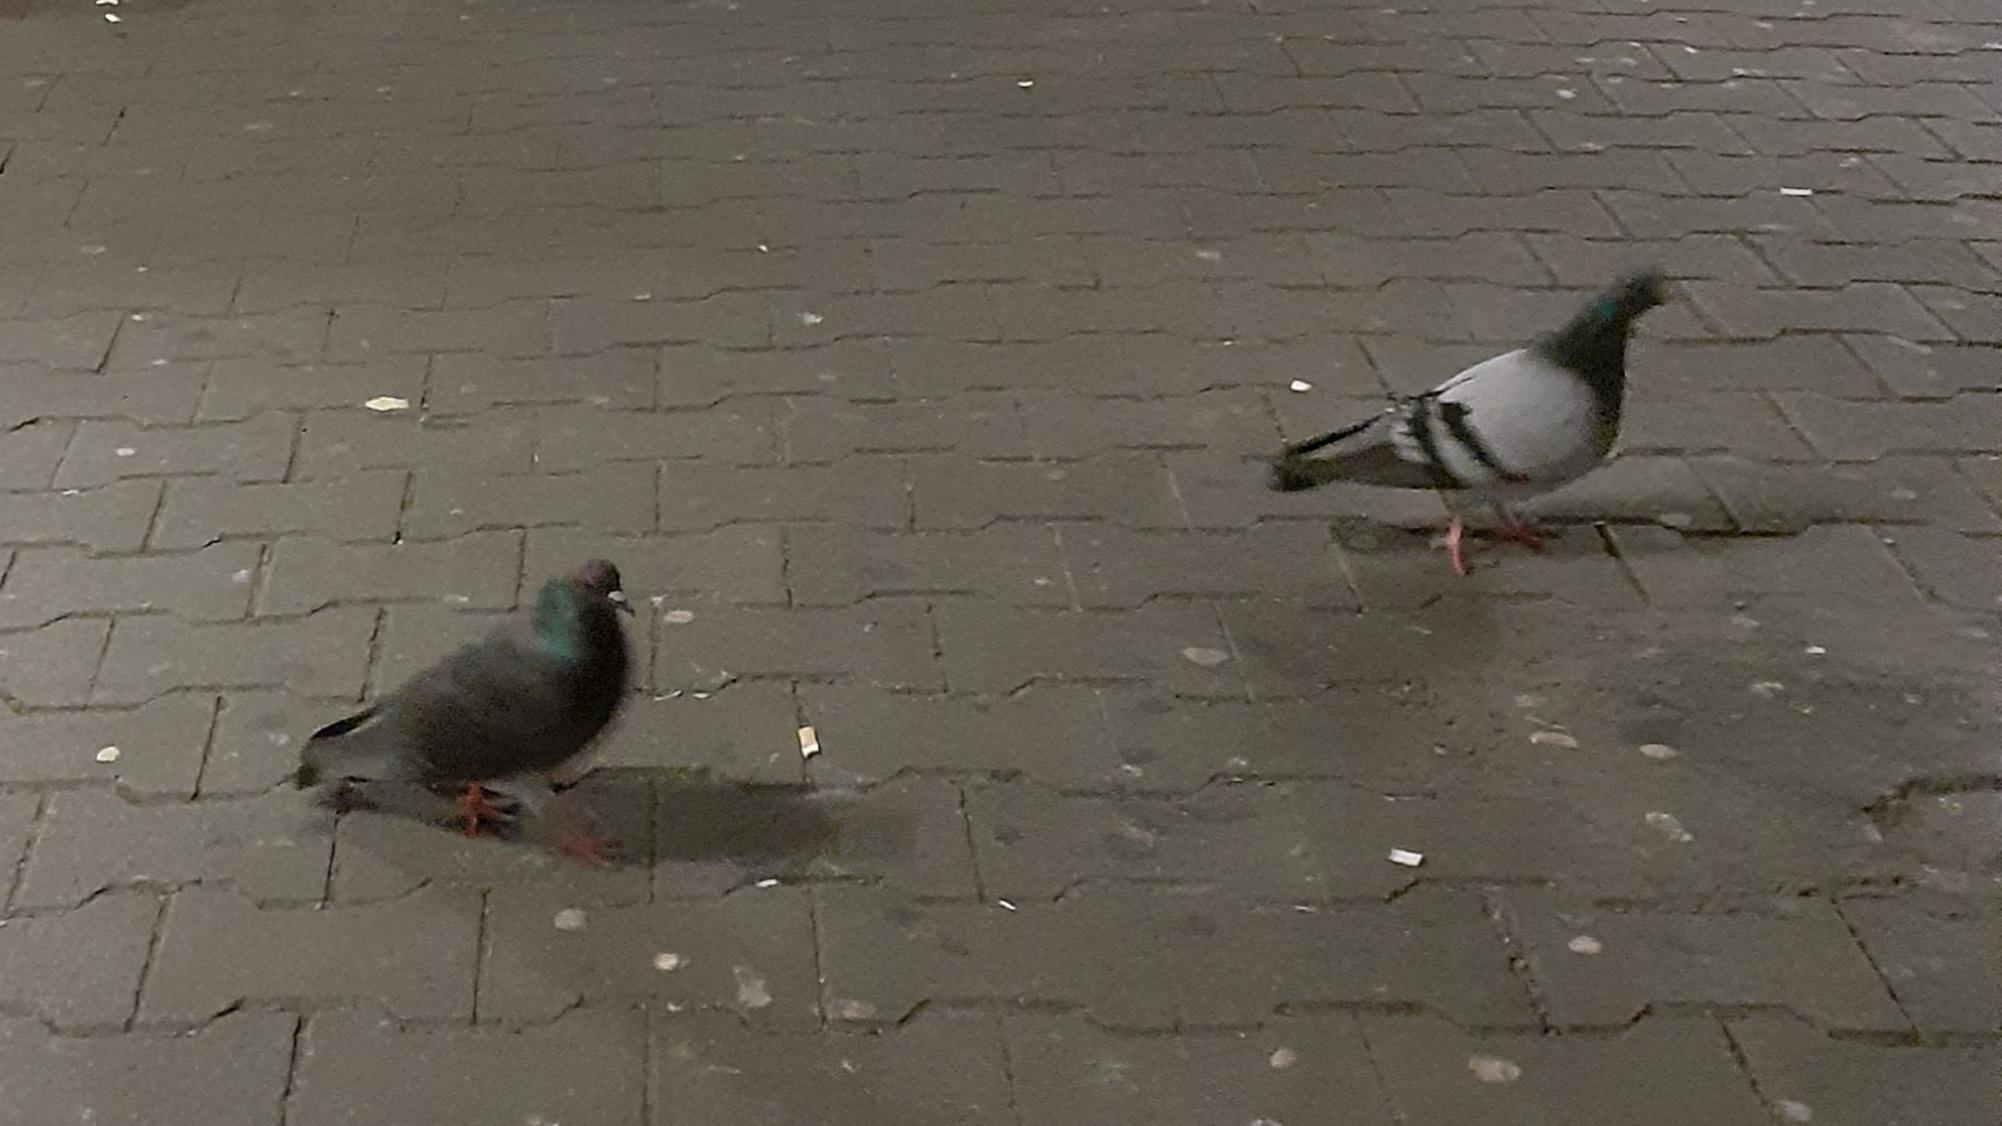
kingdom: Animalia
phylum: Chordata
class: Aves
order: Columbiformes
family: Columbidae
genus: Columba
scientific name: Columba livia
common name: Rock pigeon
